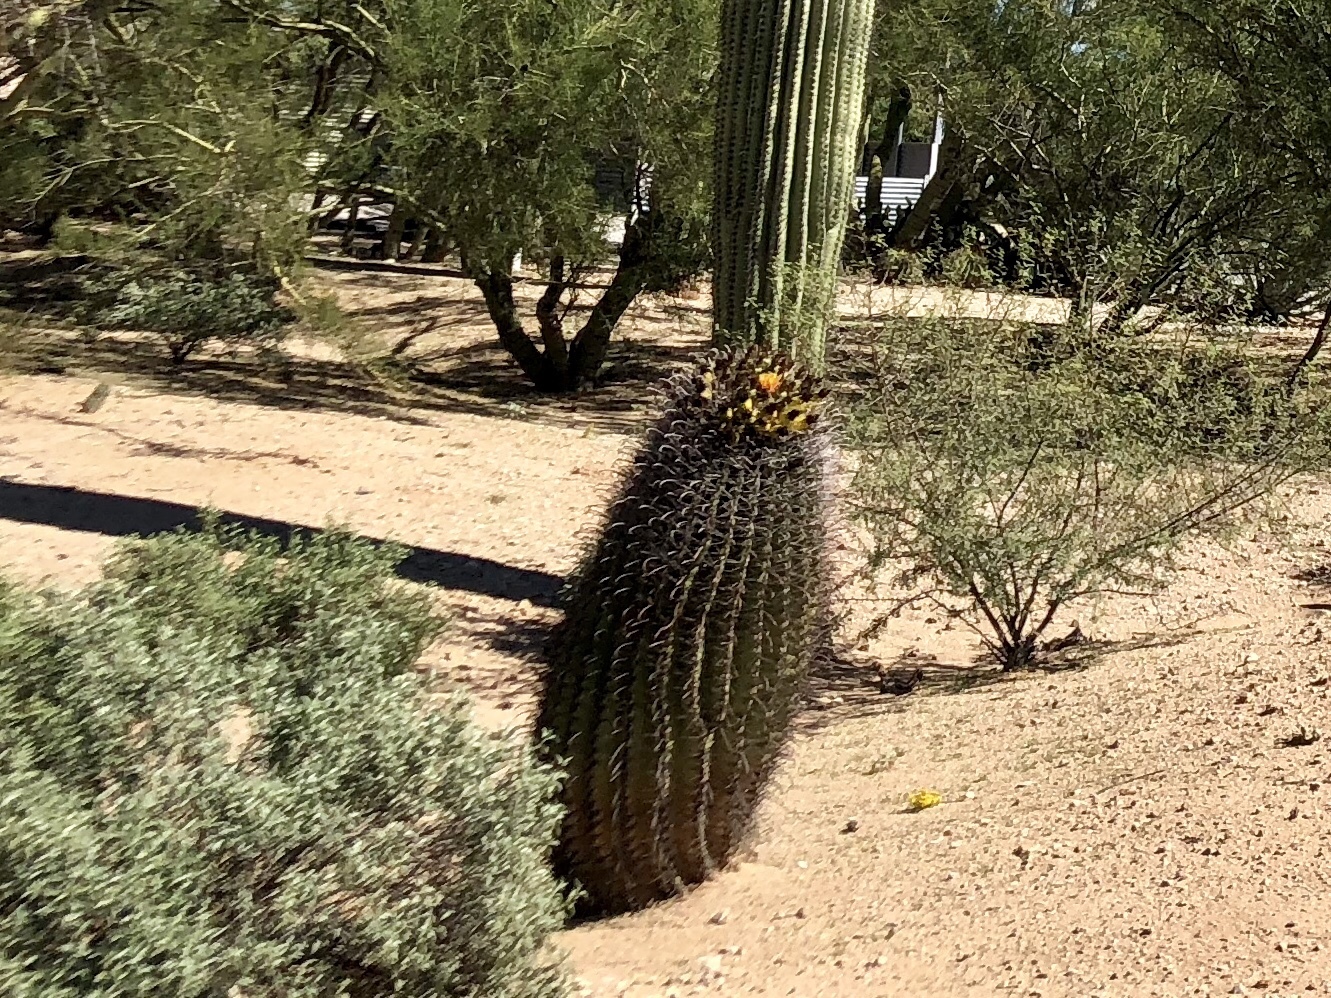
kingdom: Plantae
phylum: Tracheophyta
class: Magnoliopsida
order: Caryophyllales
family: Cactaceae
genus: Ferocactus
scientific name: Ferocactus wislizeni
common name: Candy barrel cactus
